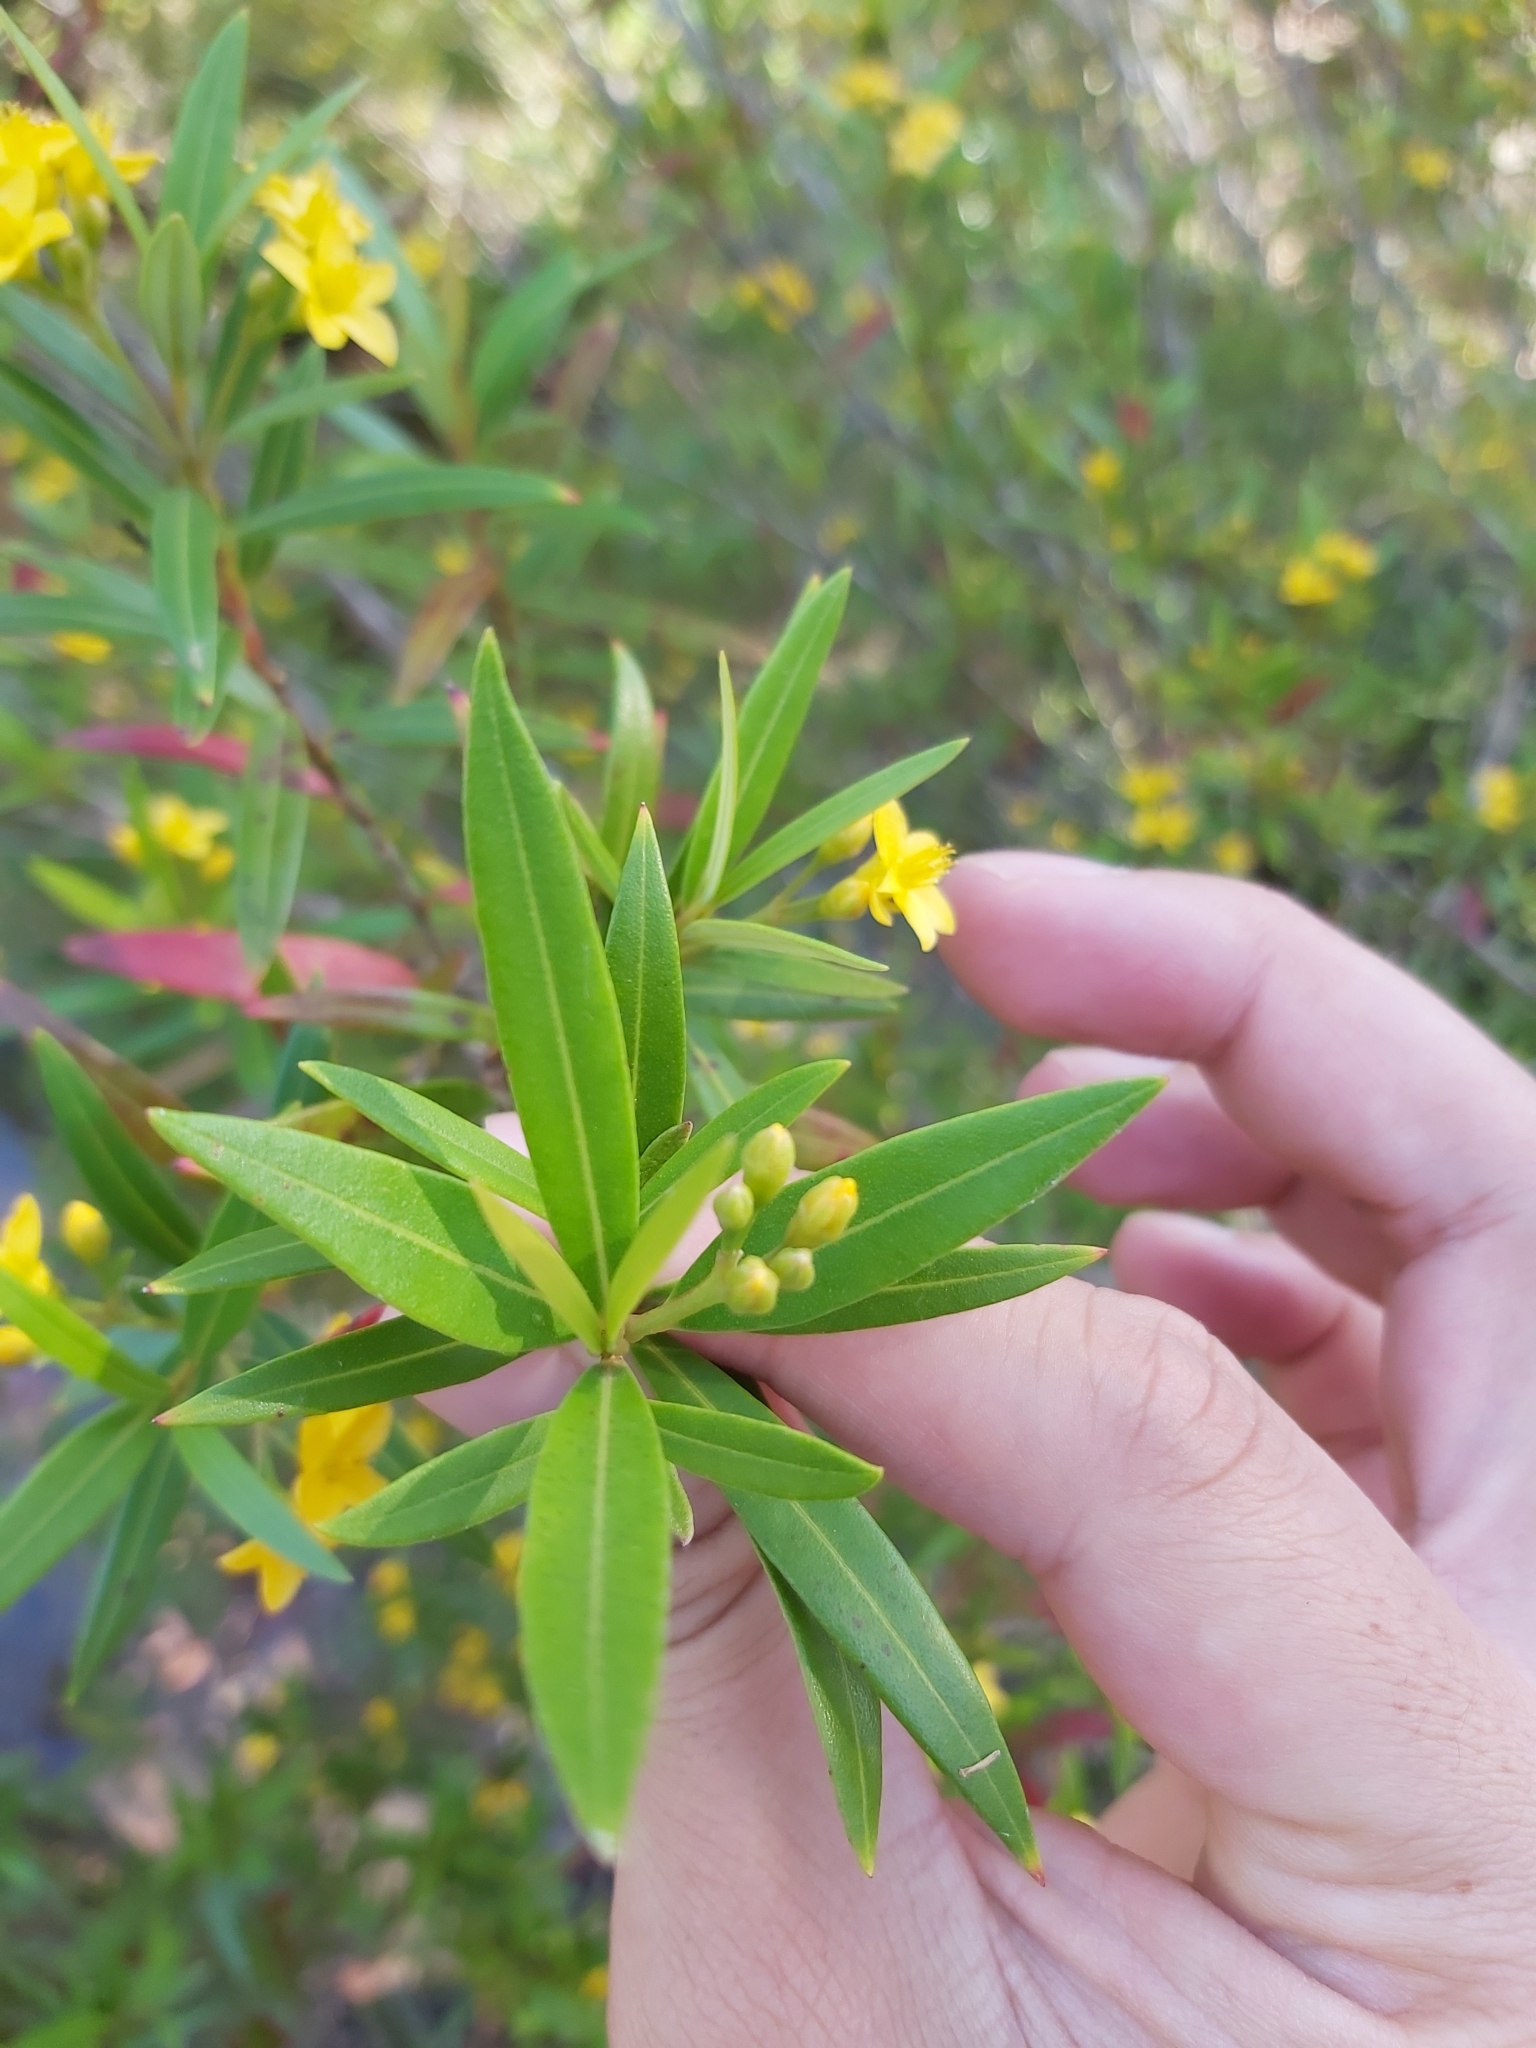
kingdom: Plantae
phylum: Tracheophyta
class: Magnoliopsida
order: Myrtales
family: Myrtaceae
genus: Tristania
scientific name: Tristania neriifolia
